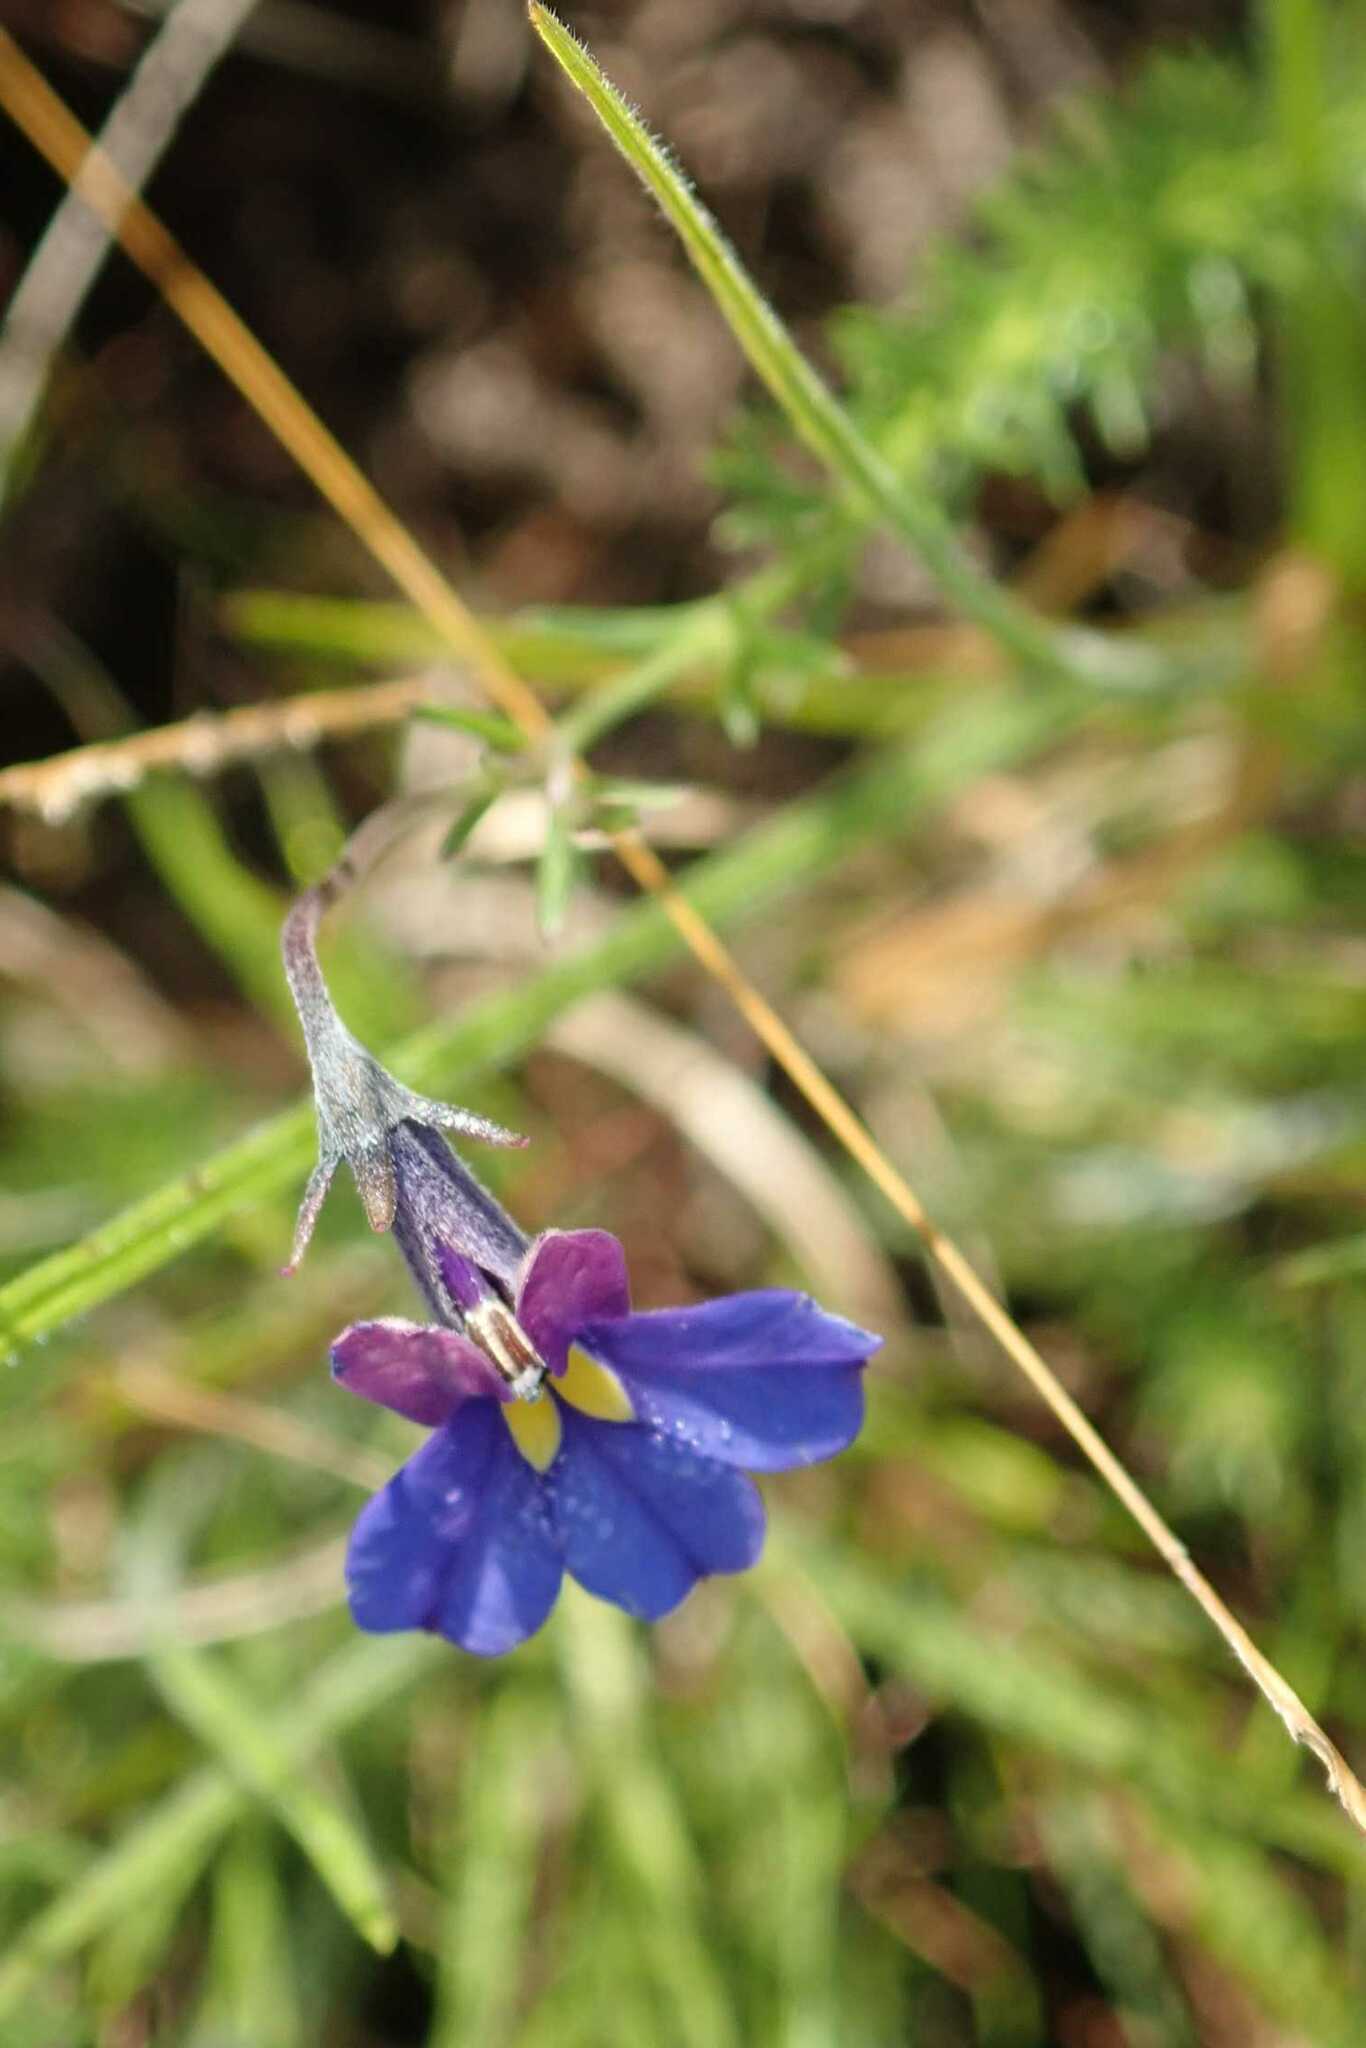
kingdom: Plantae
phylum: Tracheophyta
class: Magnoliopsida
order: Asterales
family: Campanulaceae
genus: Monopsis
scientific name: Monopsis decipiens
